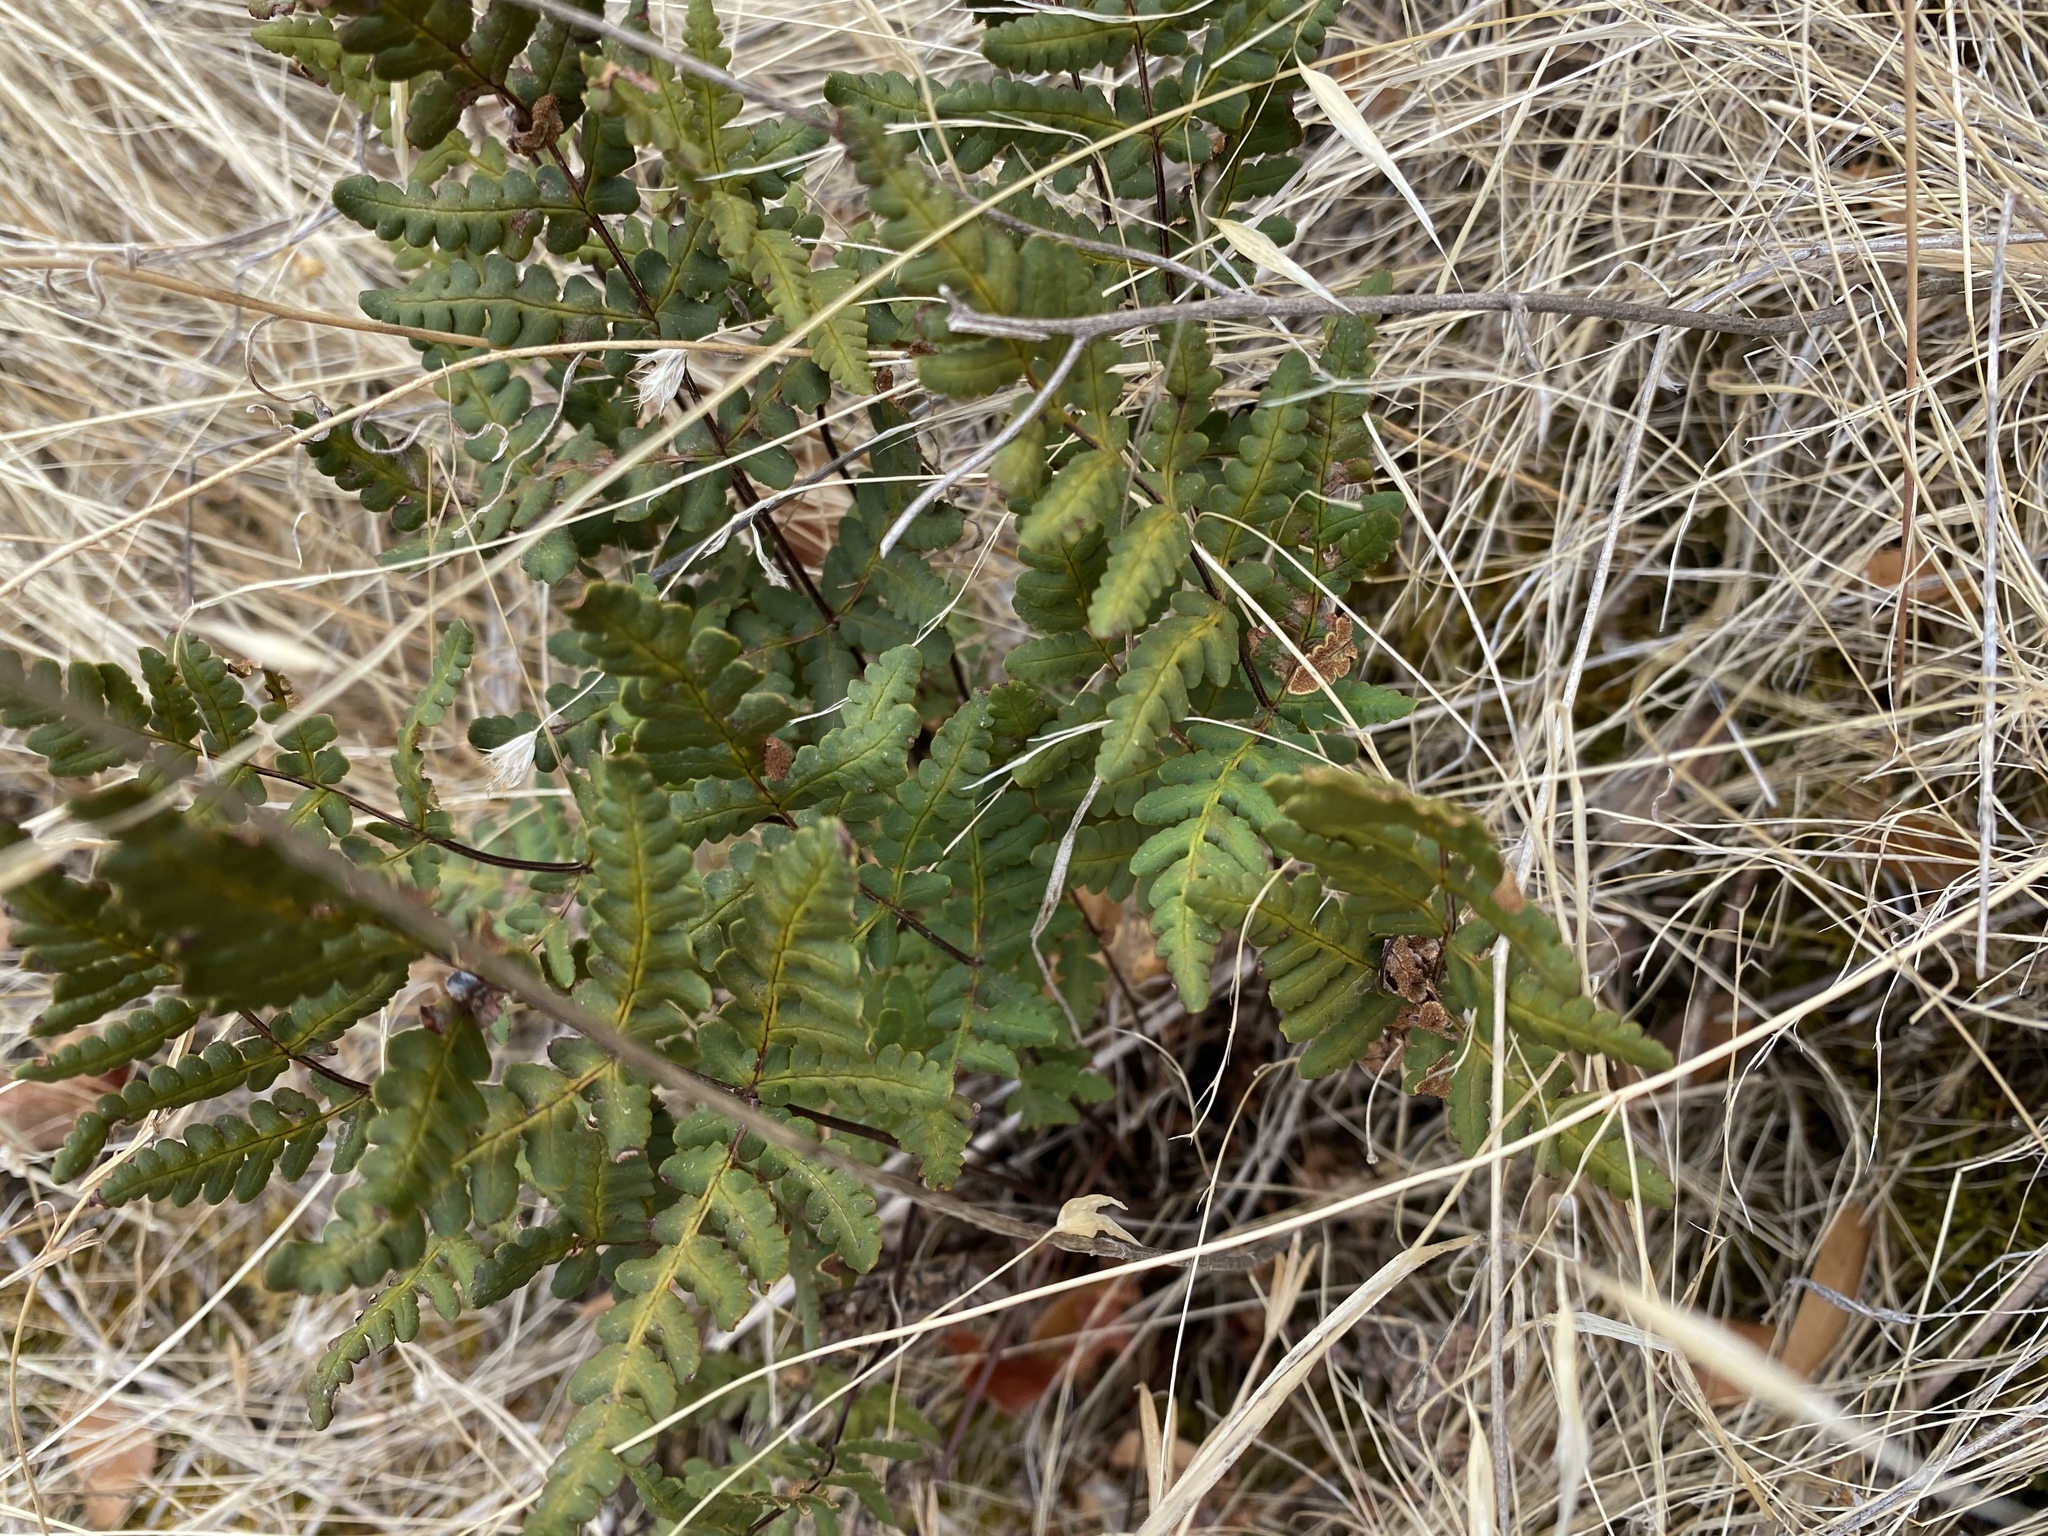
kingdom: Plantae
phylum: Tracheophyta
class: Polypodiopsida
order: Polypodiales
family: Pteridaceae
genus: Pentagramma
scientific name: Pentagramma triangularis
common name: Gold fern
